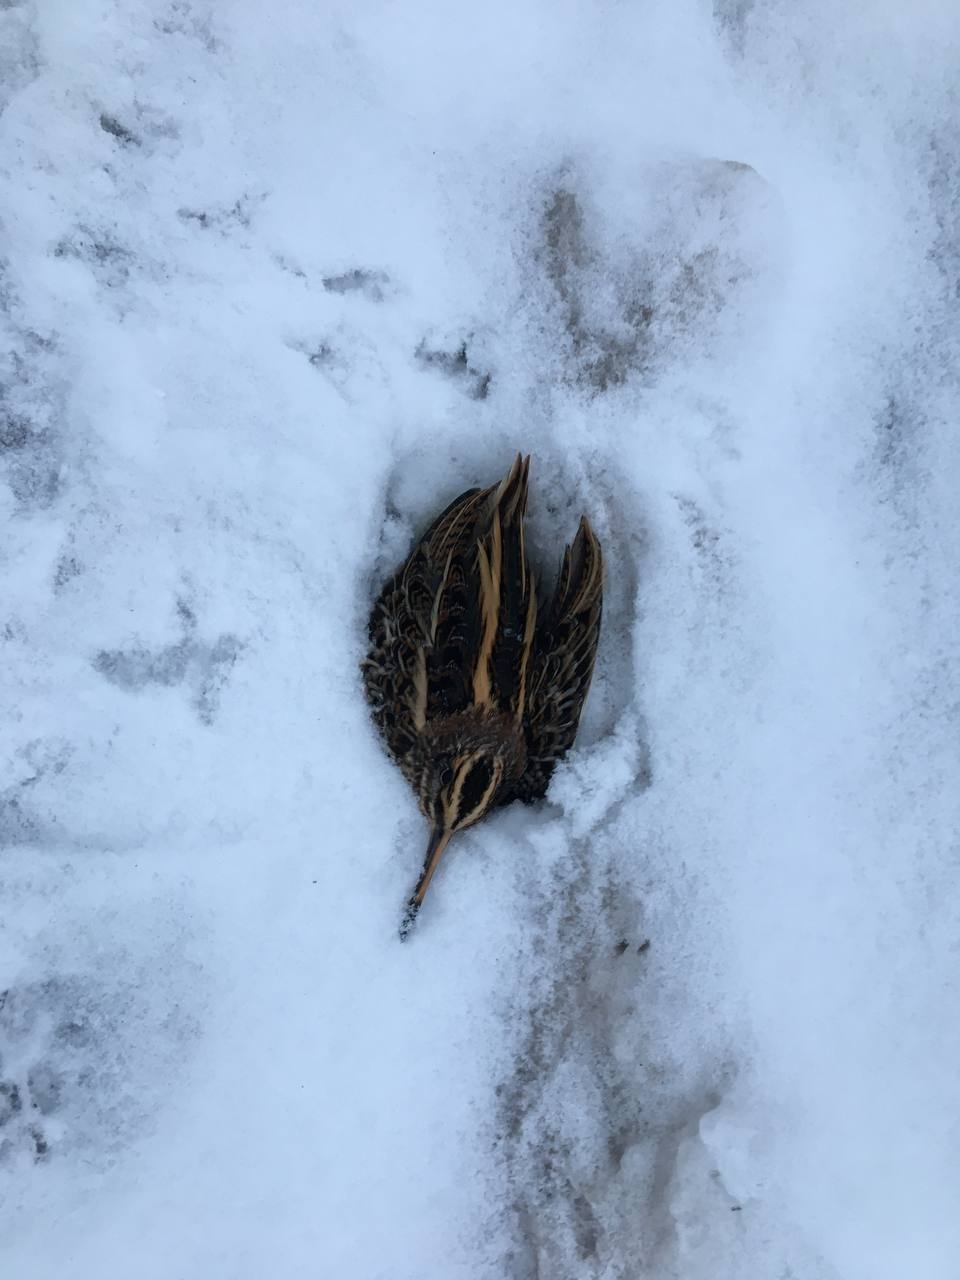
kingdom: Animalia
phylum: Chordata
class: Aves
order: Charadriiformes
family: Scolopacidae
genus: Lymnocryptes
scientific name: Lymnocryptes minimus
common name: Jack snipe
